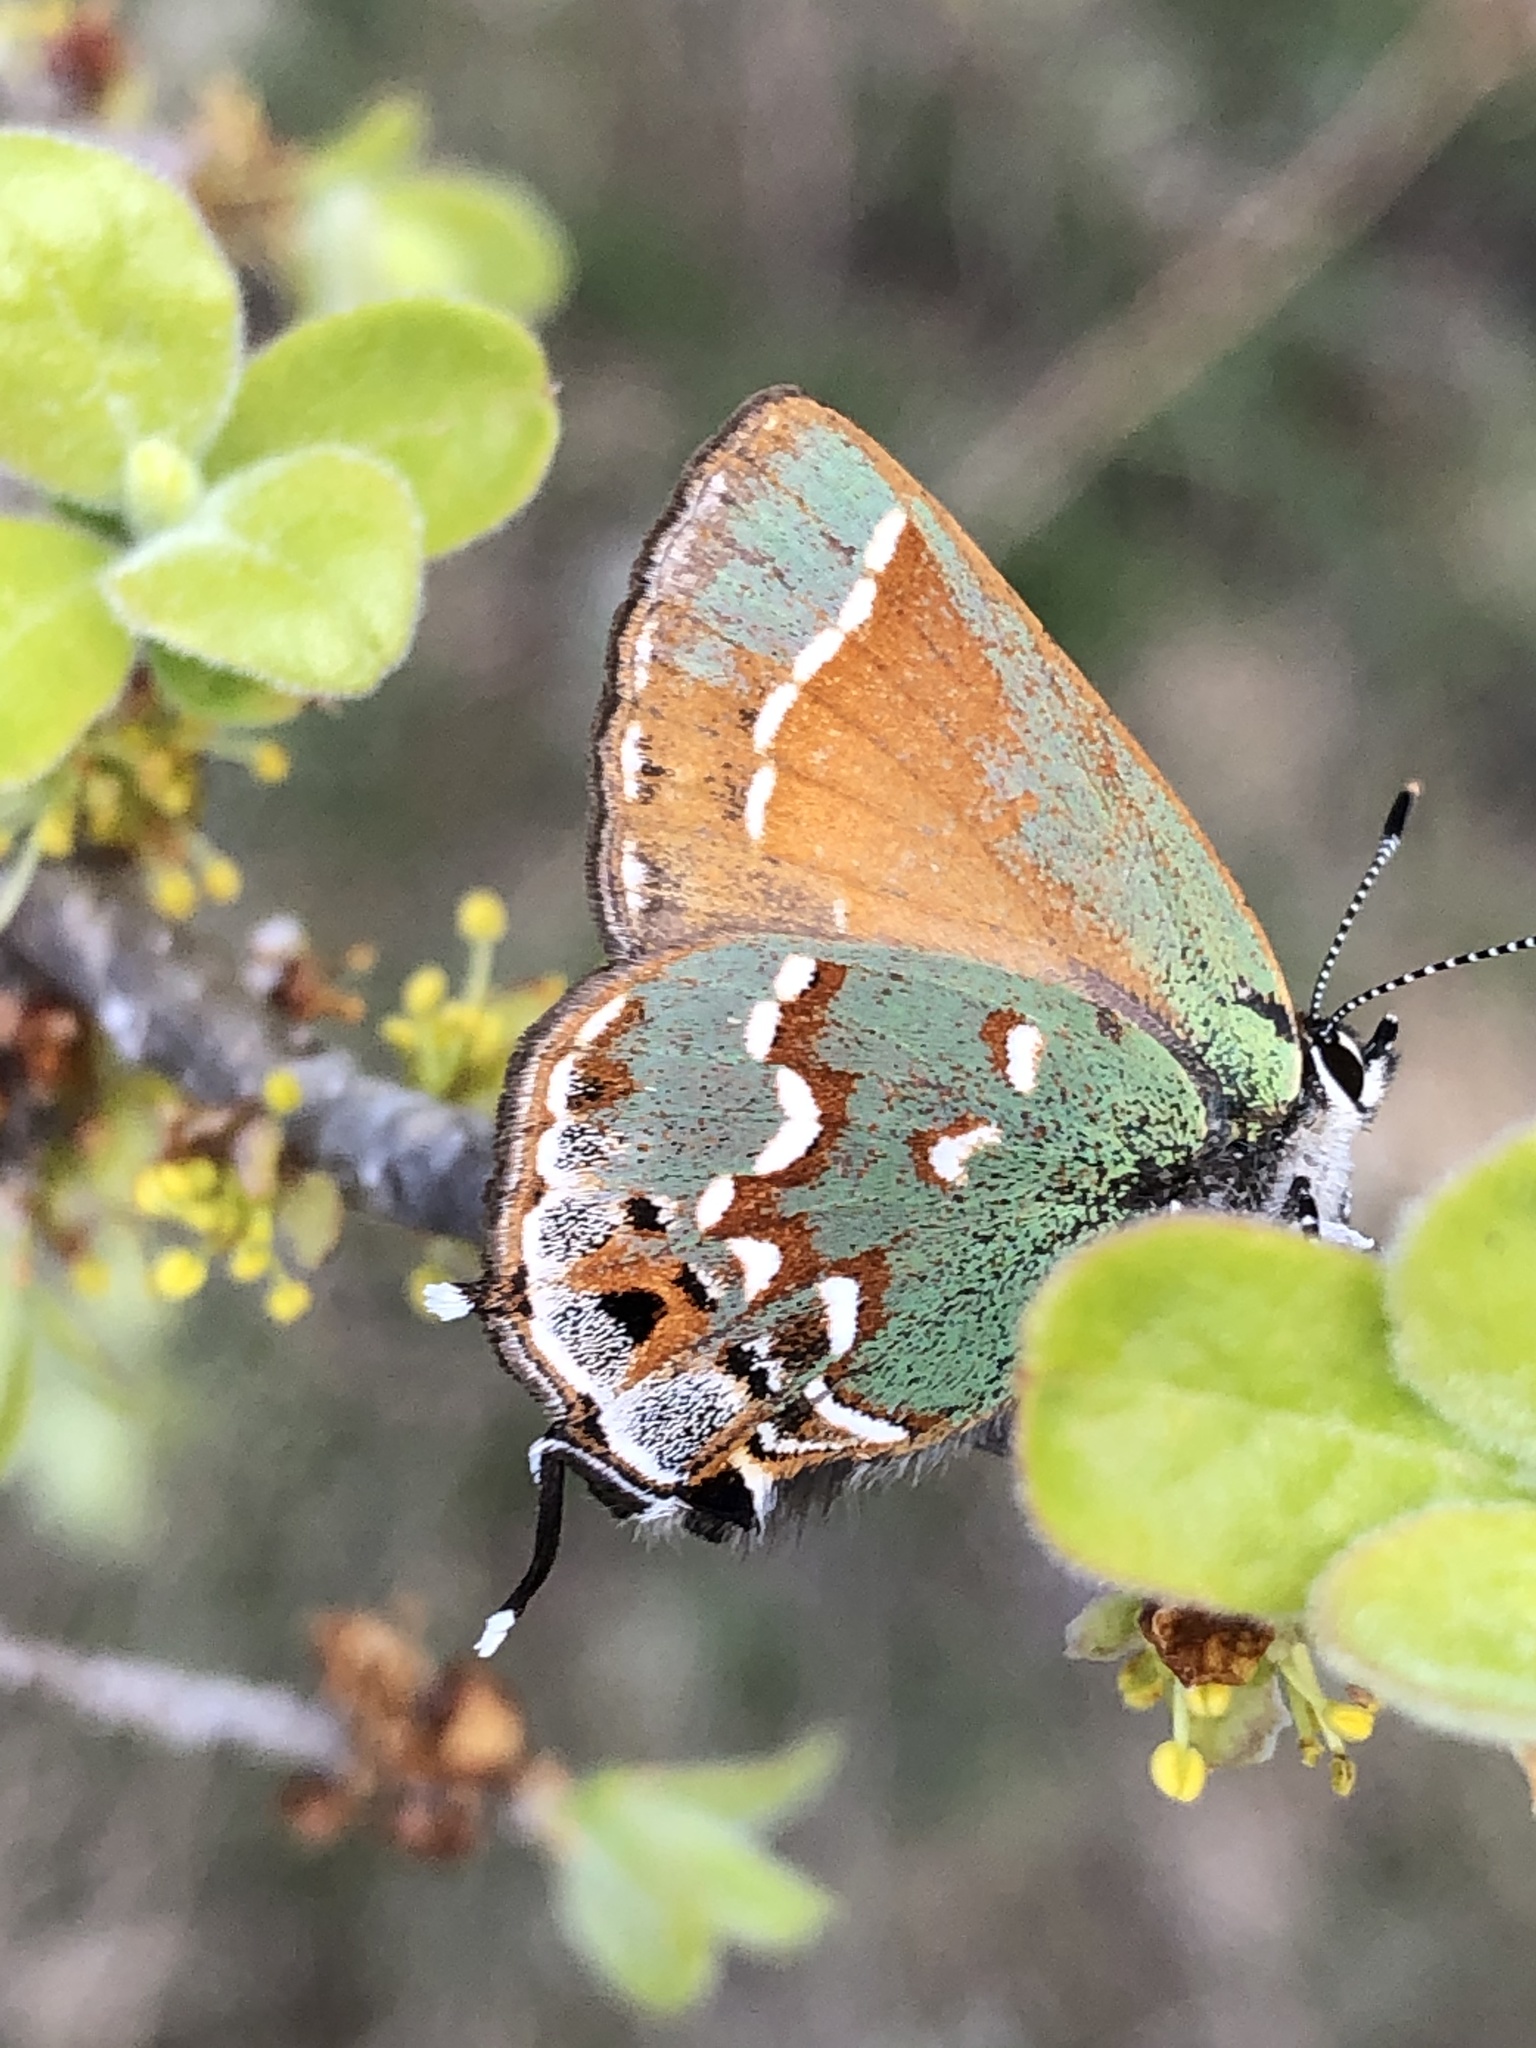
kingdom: Animalia
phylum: Arthropoda
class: Insecta
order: Lepidoptera
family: Lycaenidae
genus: Mitoura
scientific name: Mitoura gryneus
